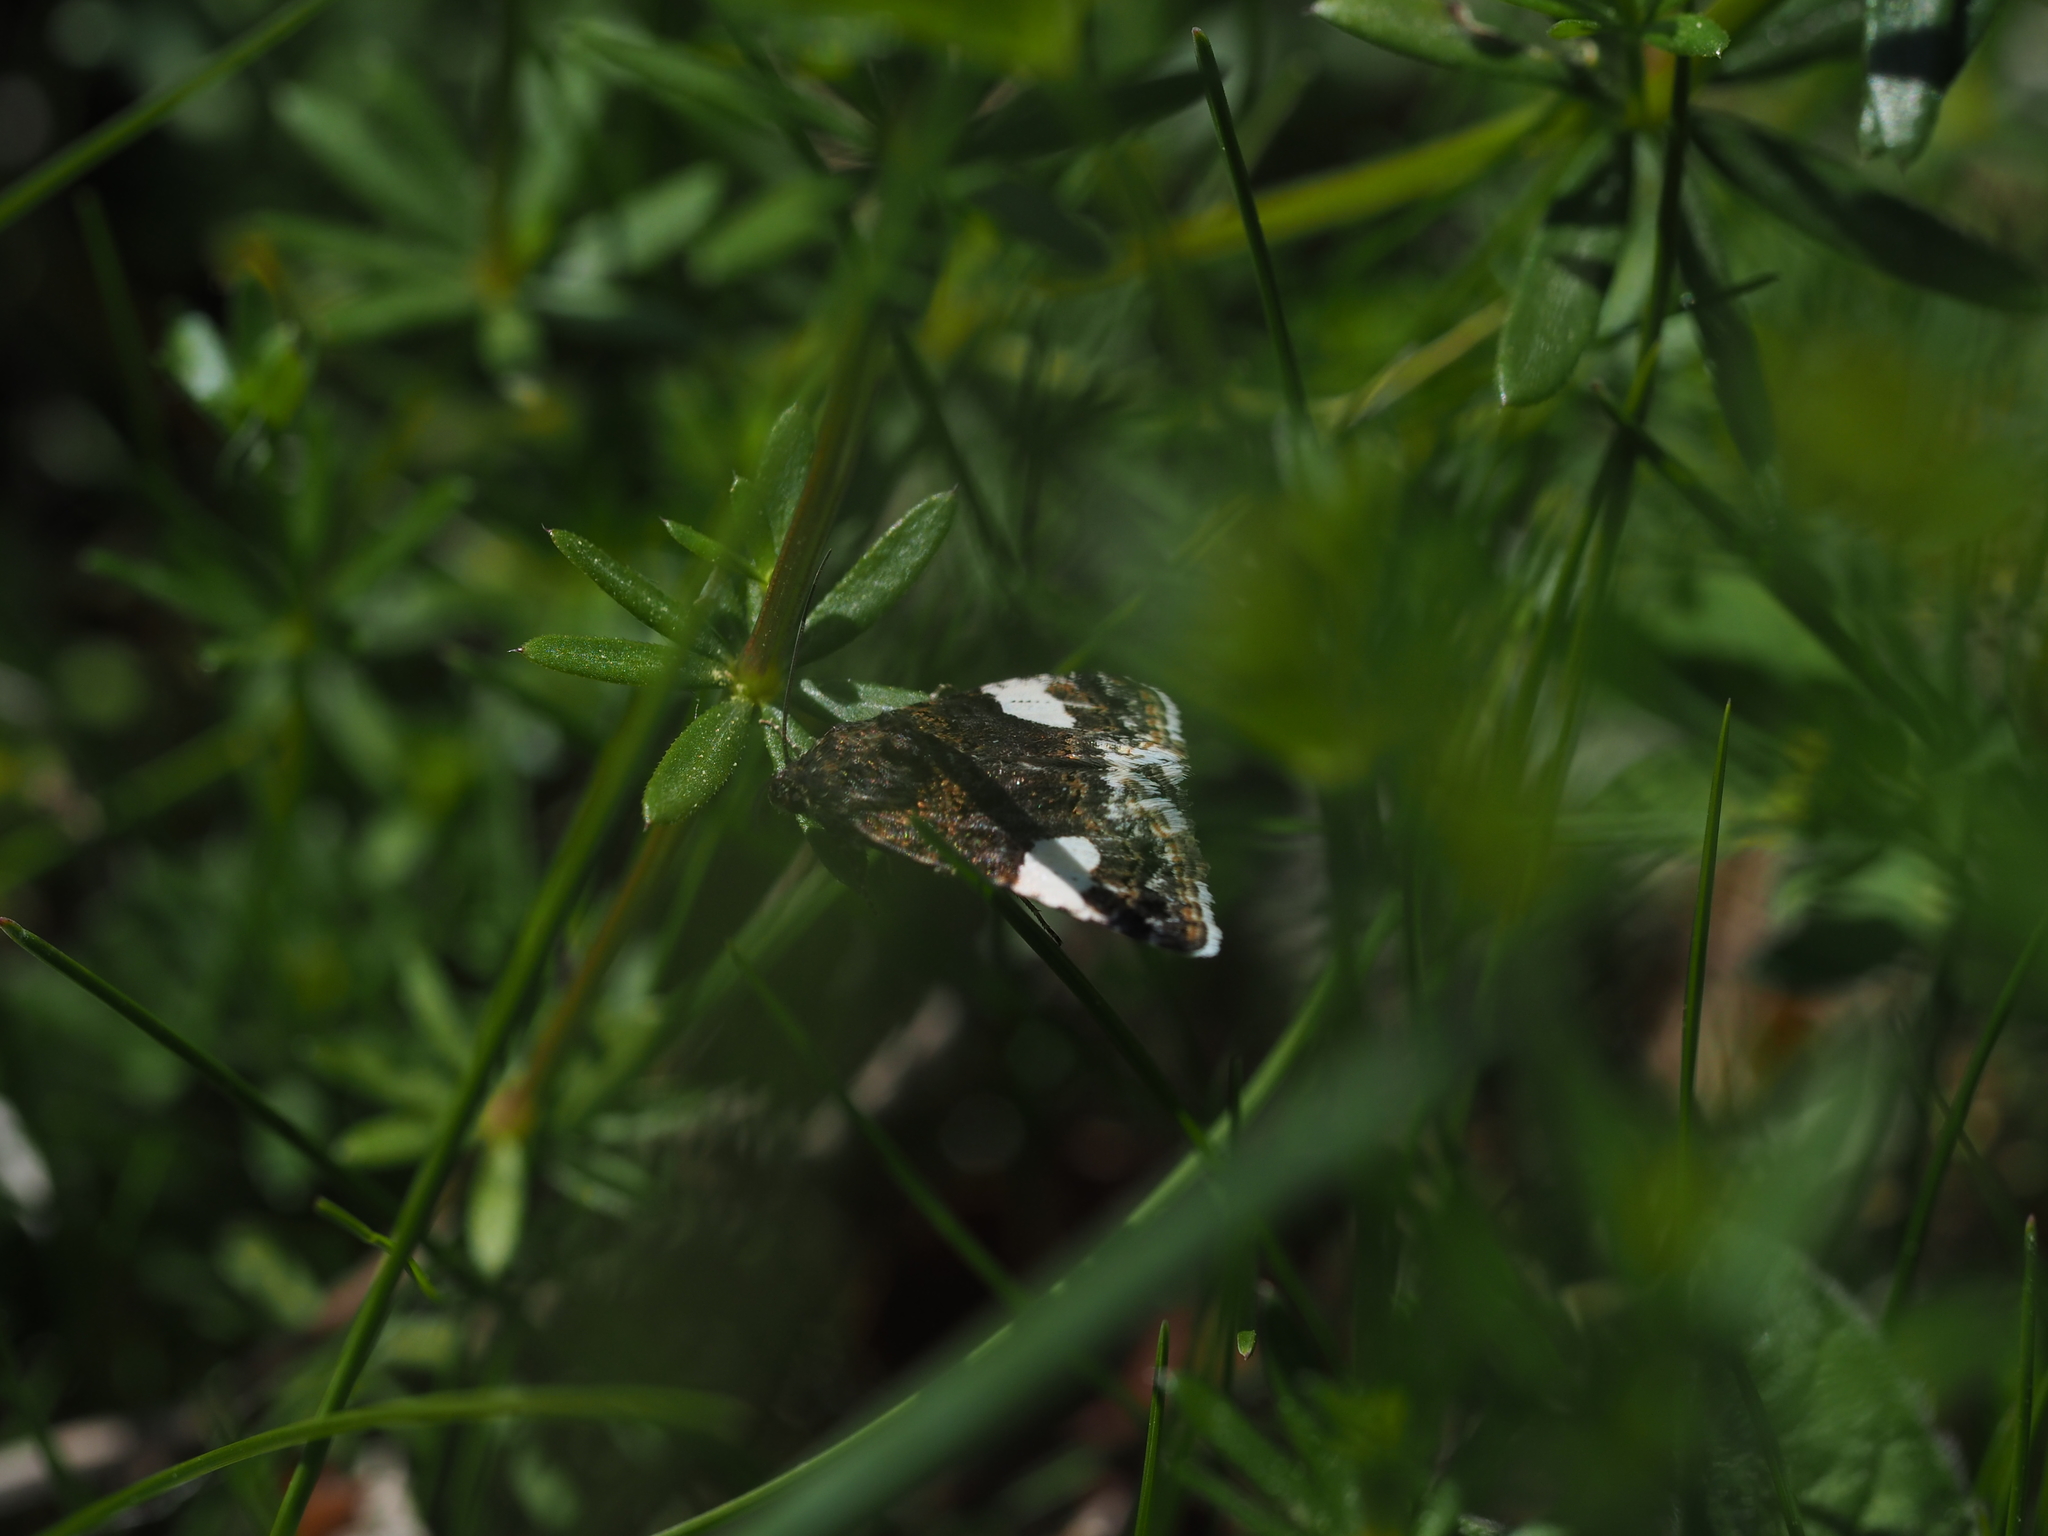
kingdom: Animalia
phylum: Arthropoda
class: Insecta
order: Lepidoptera
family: Erebidae
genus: Tyta
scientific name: Tyta luctuosa
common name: Four-spotted
